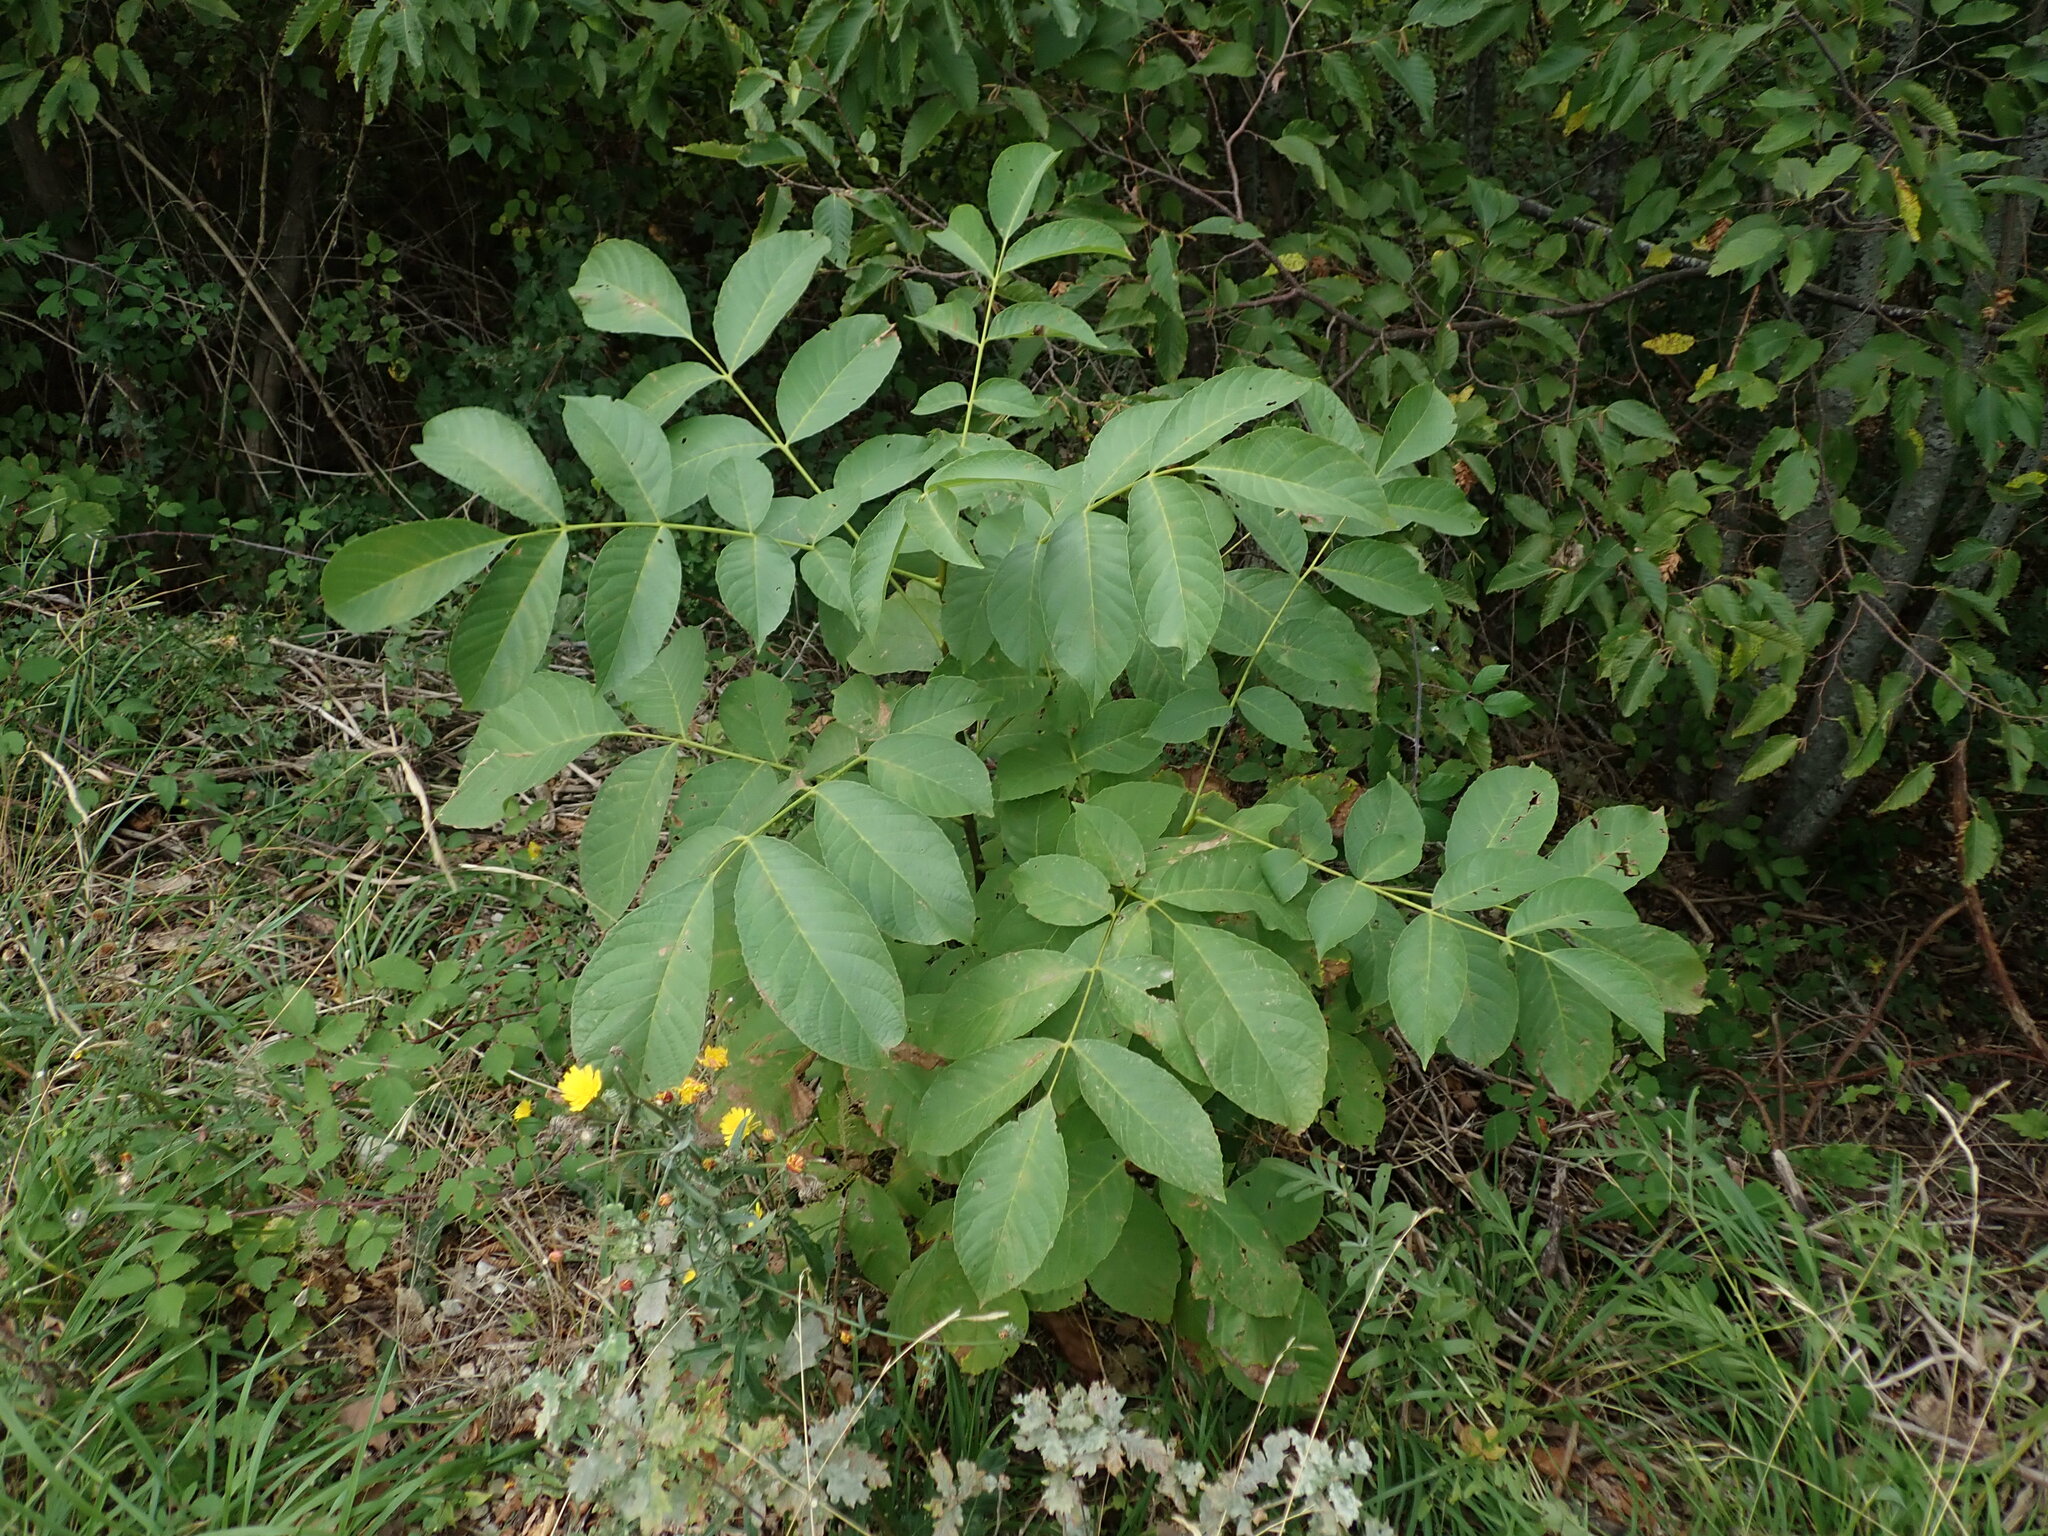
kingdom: Plantae
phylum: Tracheophyta
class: Magnoliopsida
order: Fagales
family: Juglandaceae
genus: Juglans
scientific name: Juglans regia
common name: Walnut
